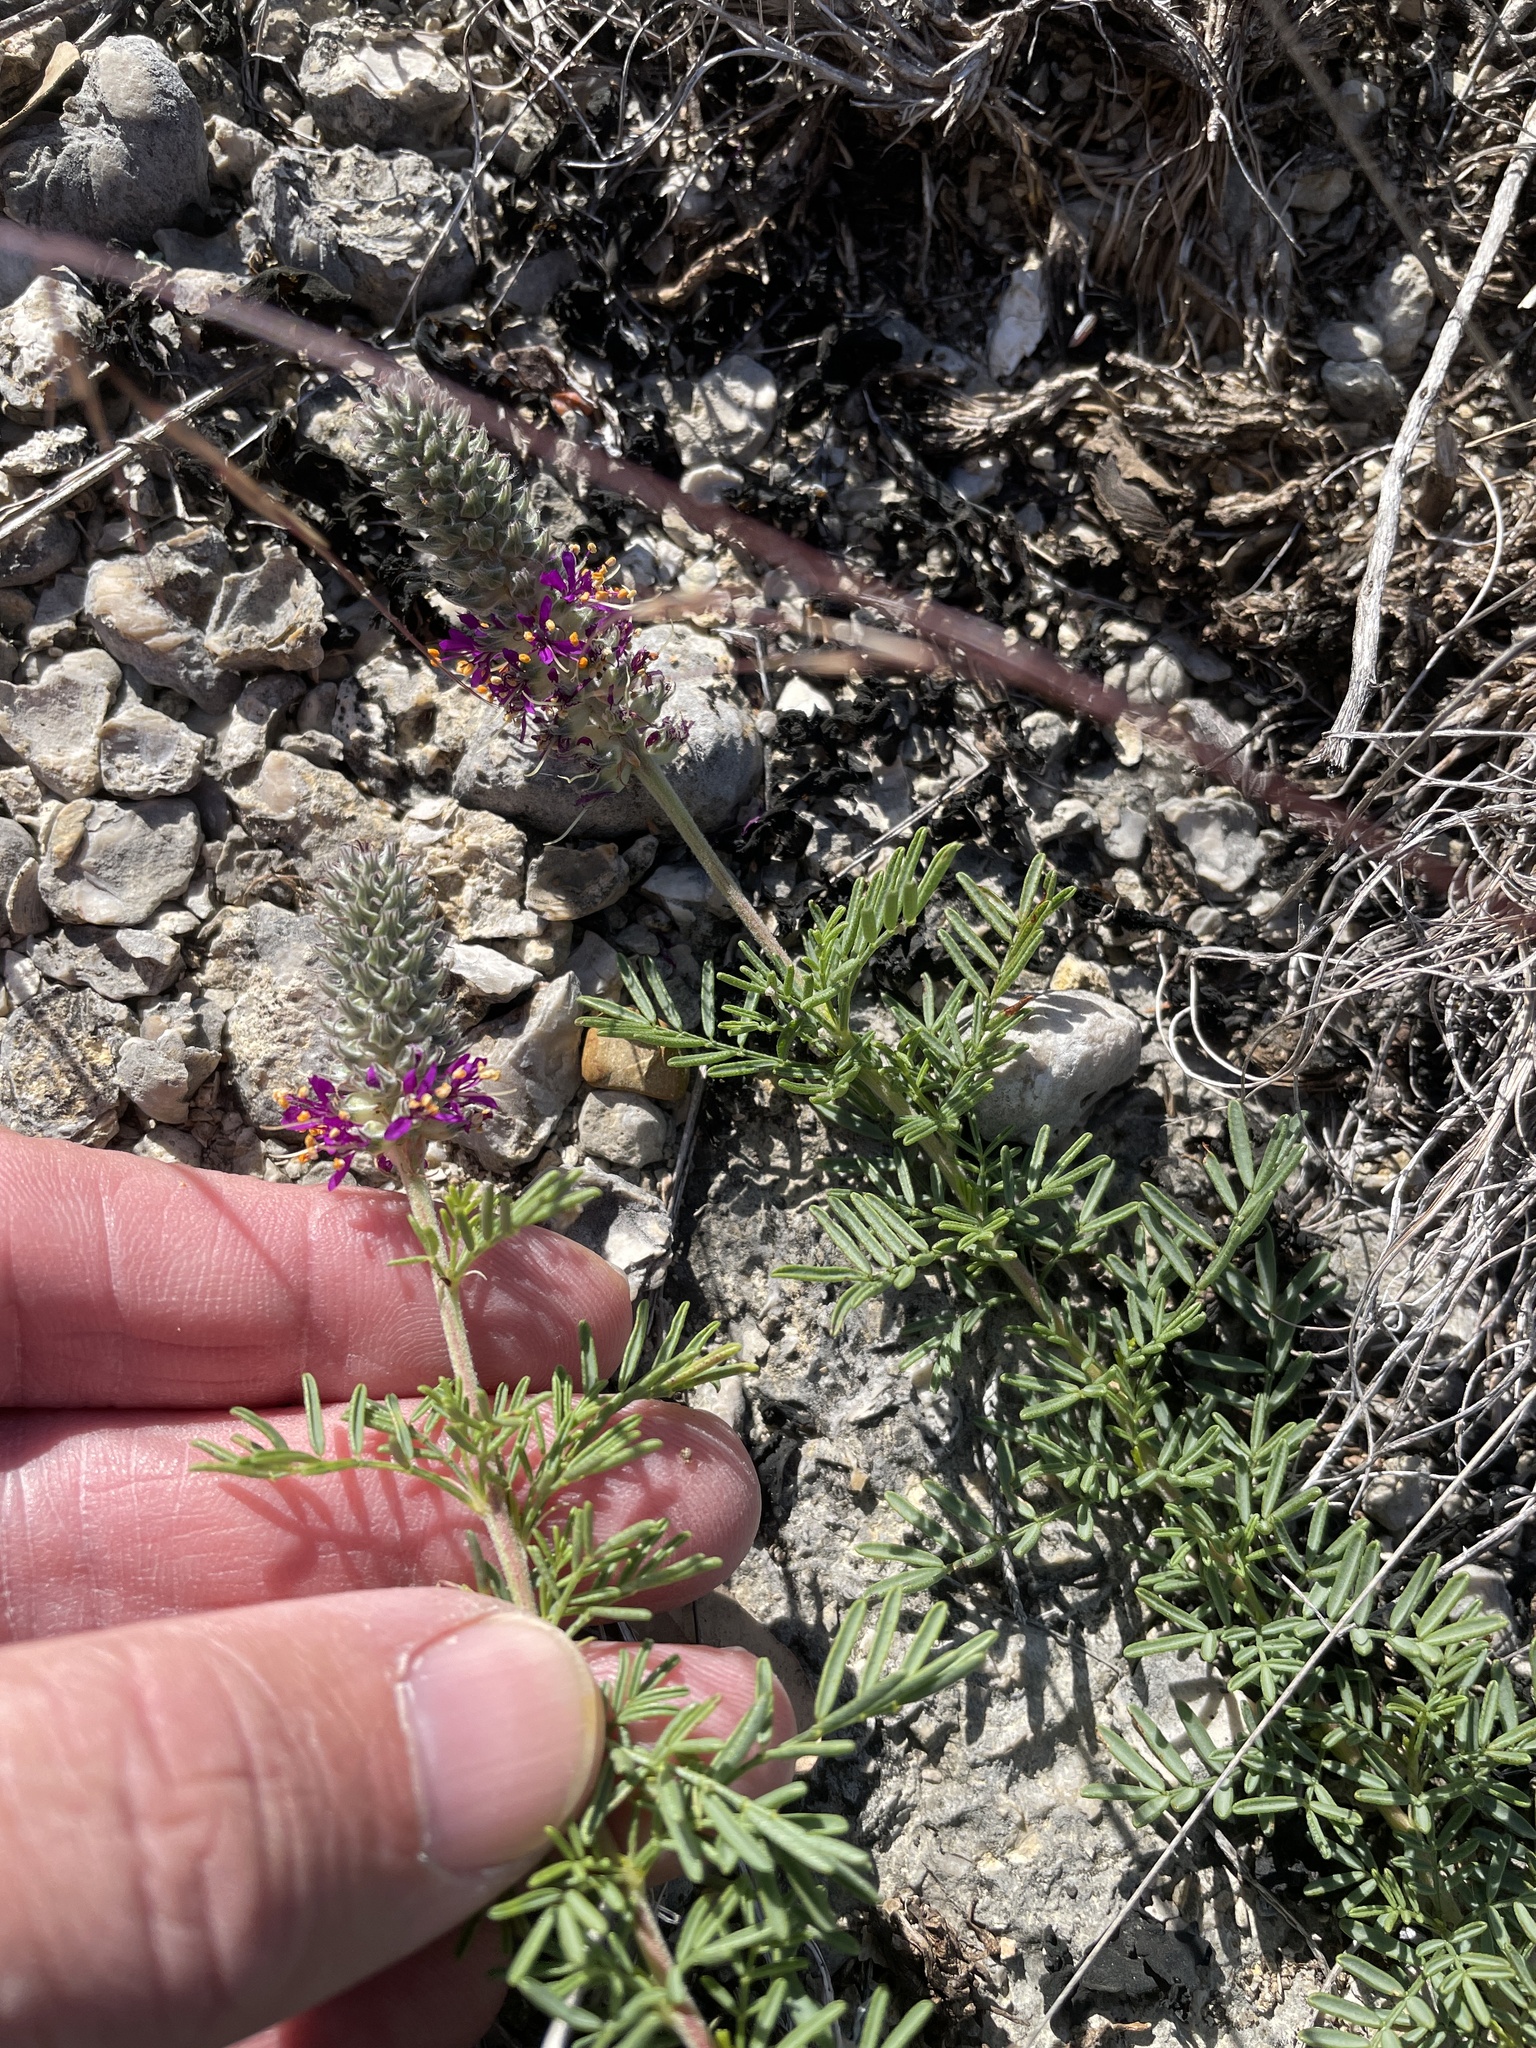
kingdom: Plantae
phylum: Tracheophyta
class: Magnoliopsida
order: Fabales
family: Fabaceae
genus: Dalea
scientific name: Dalea reverchonii
